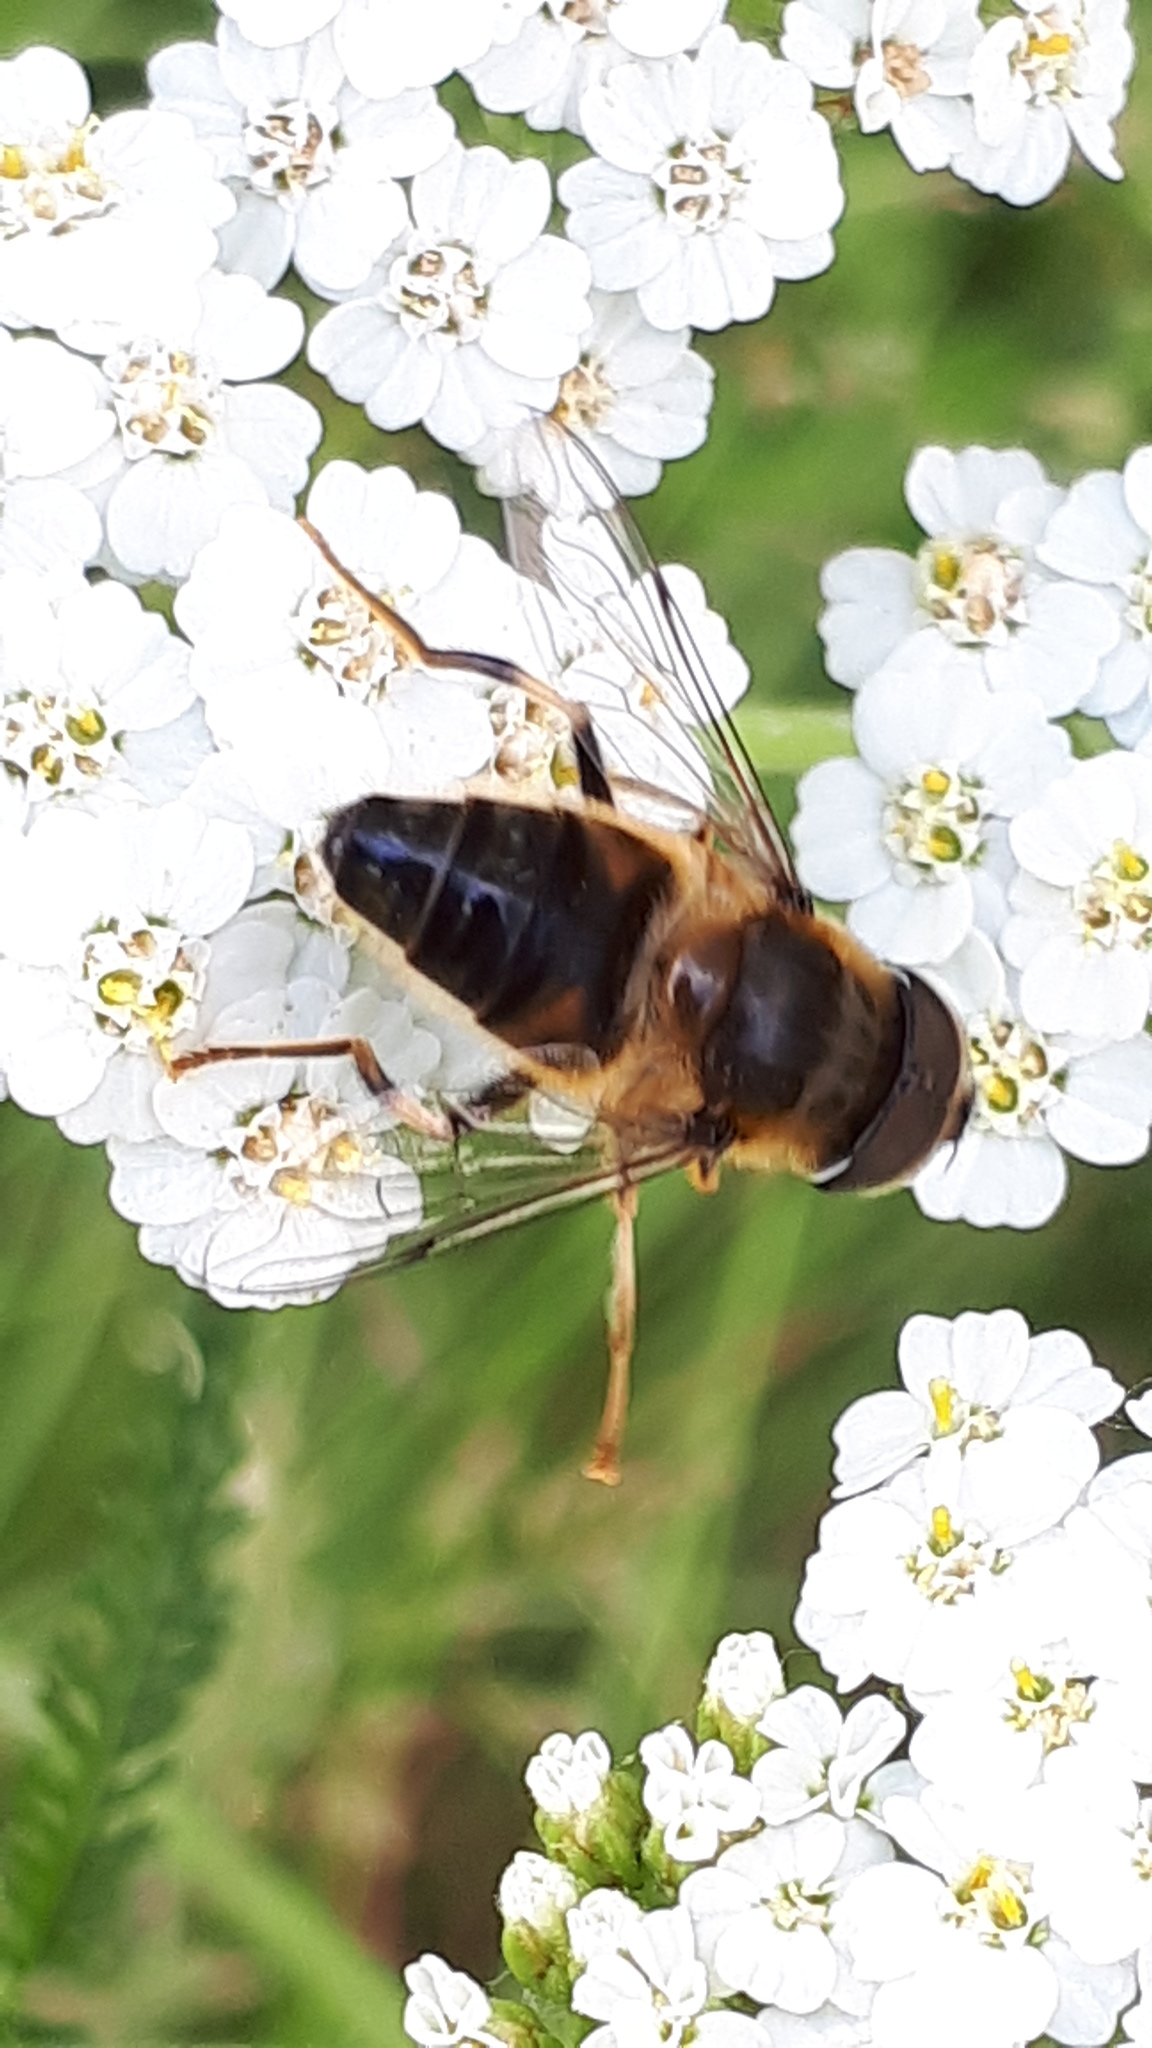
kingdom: Animalia
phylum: Arthropoda
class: Insecta
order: Diptera
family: Syrphidae
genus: Eristalis
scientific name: Eristalis pertinax
